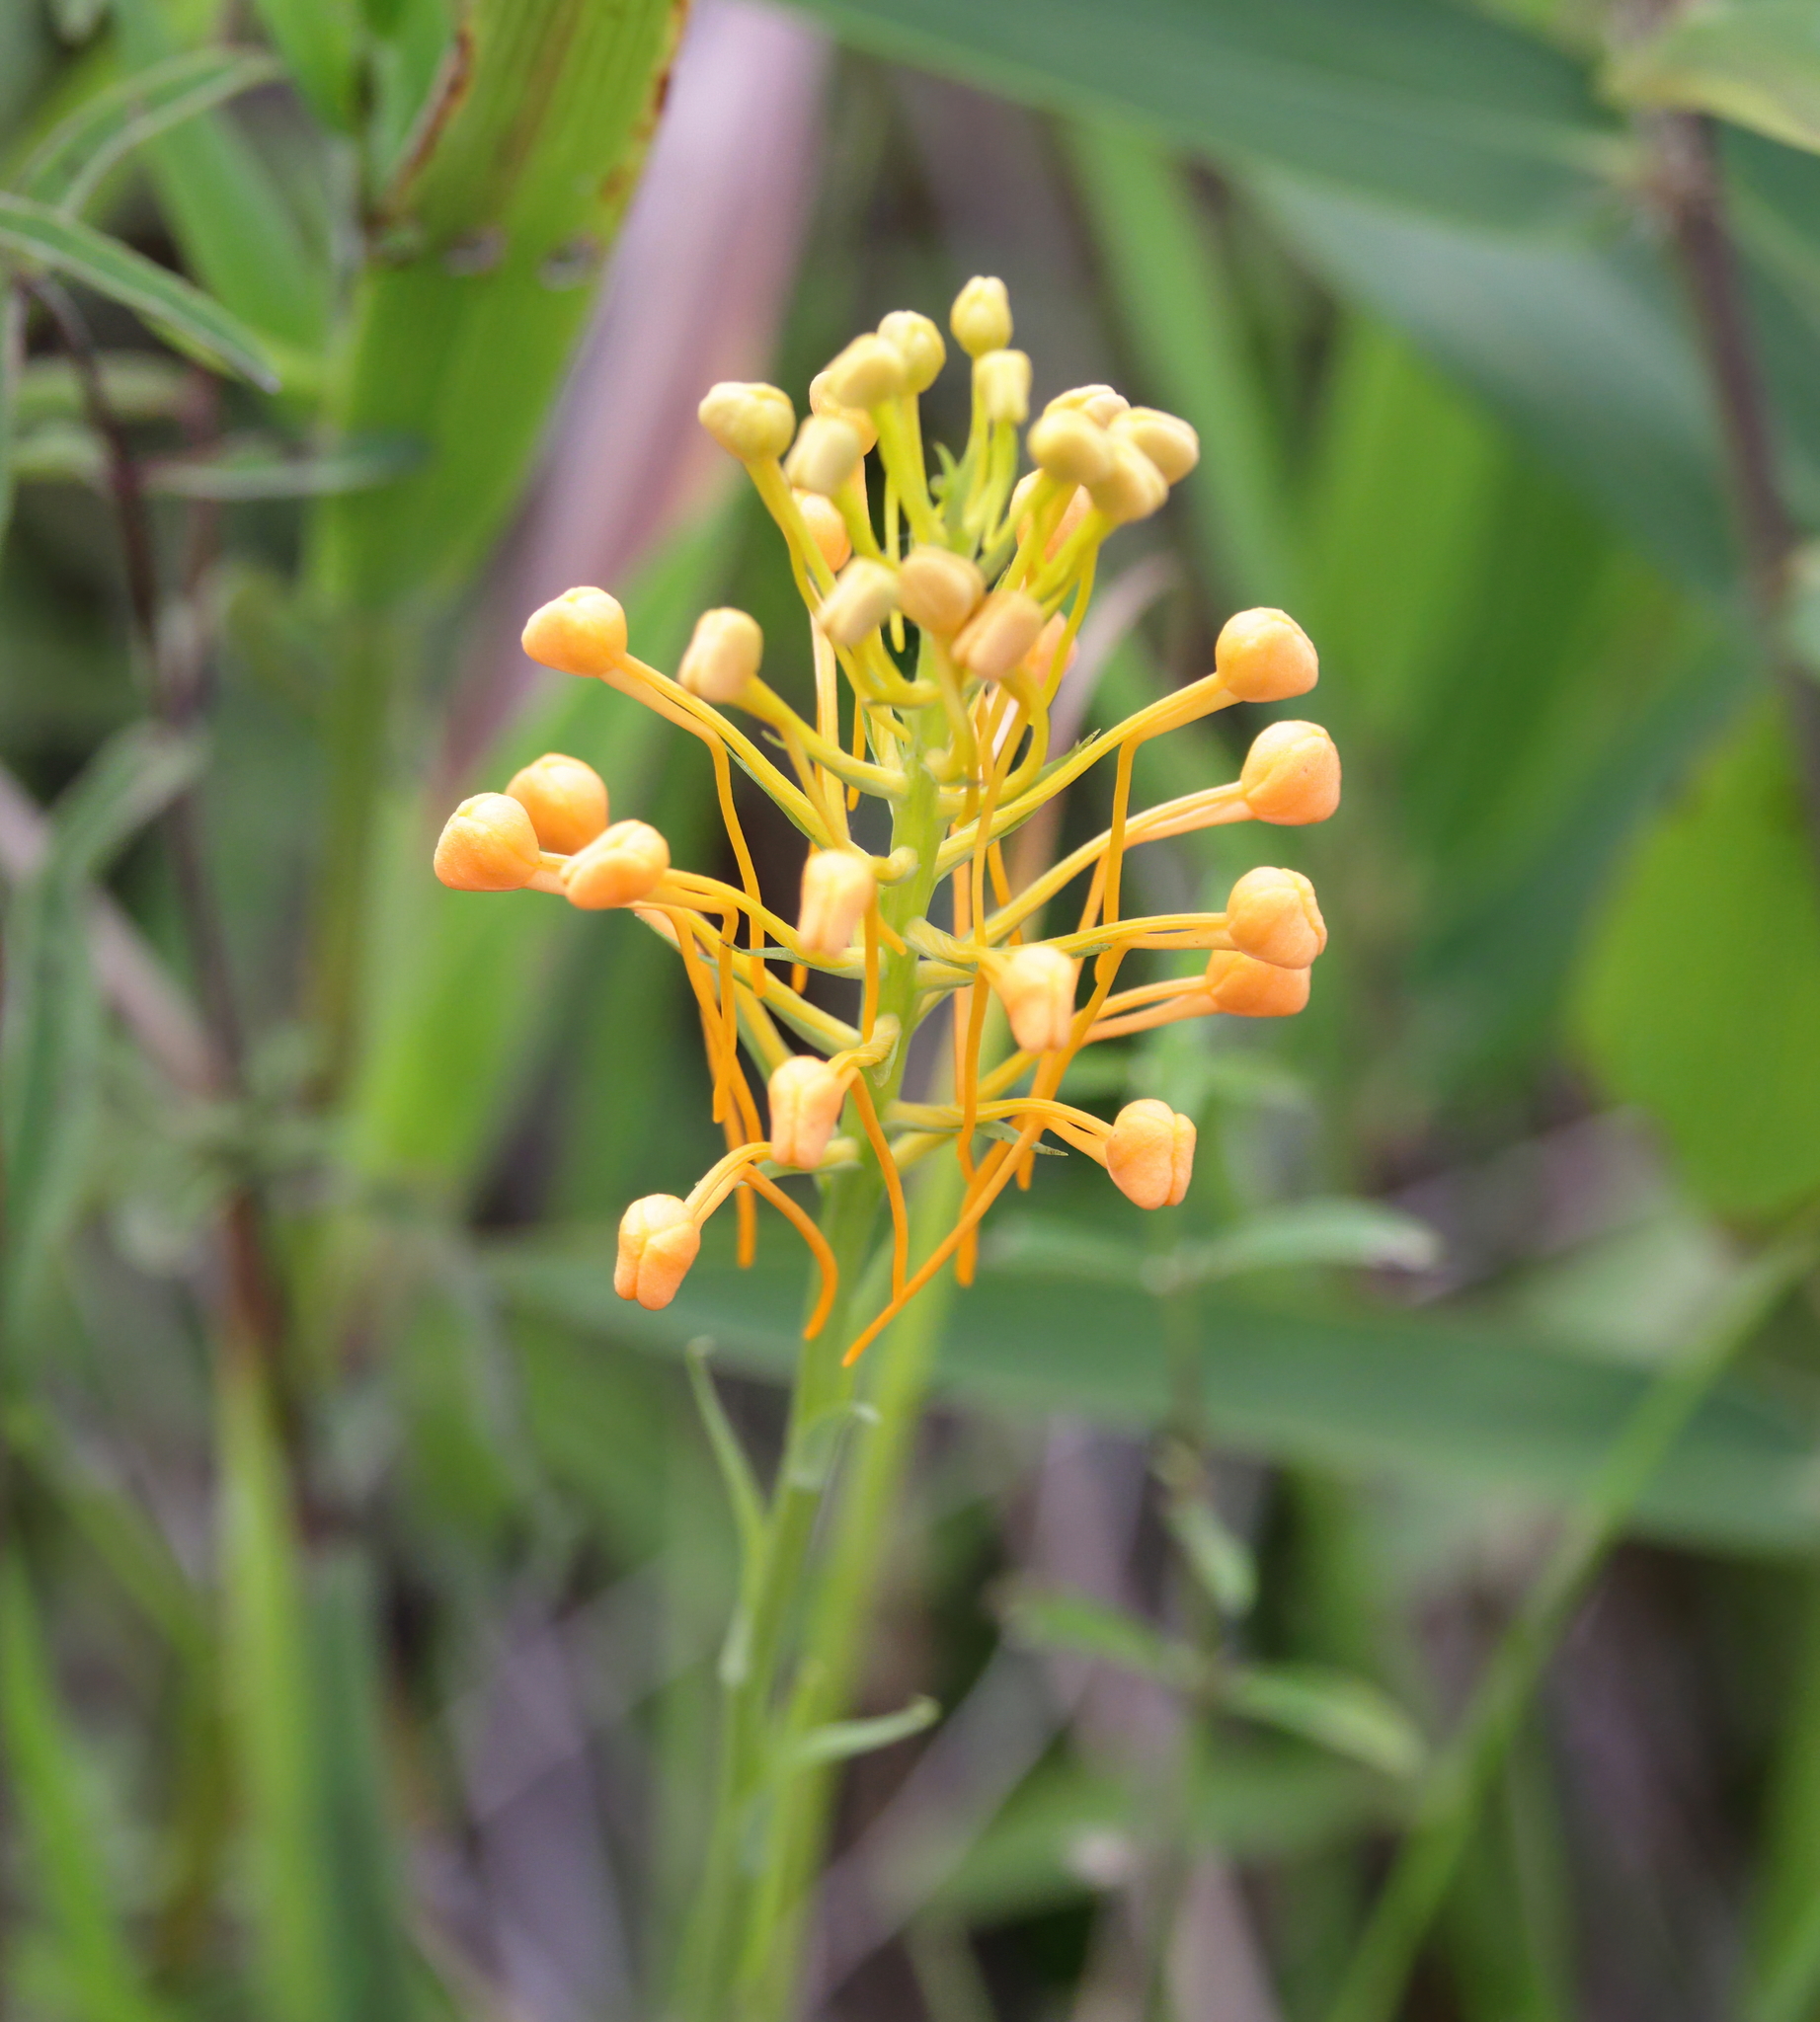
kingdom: Plantae
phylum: Tracheophyta
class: Liliopsida
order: Asparagales
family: Orchidaceae
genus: Platanthera
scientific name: Platanthera ciliaris
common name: Yellow fringed orchid
